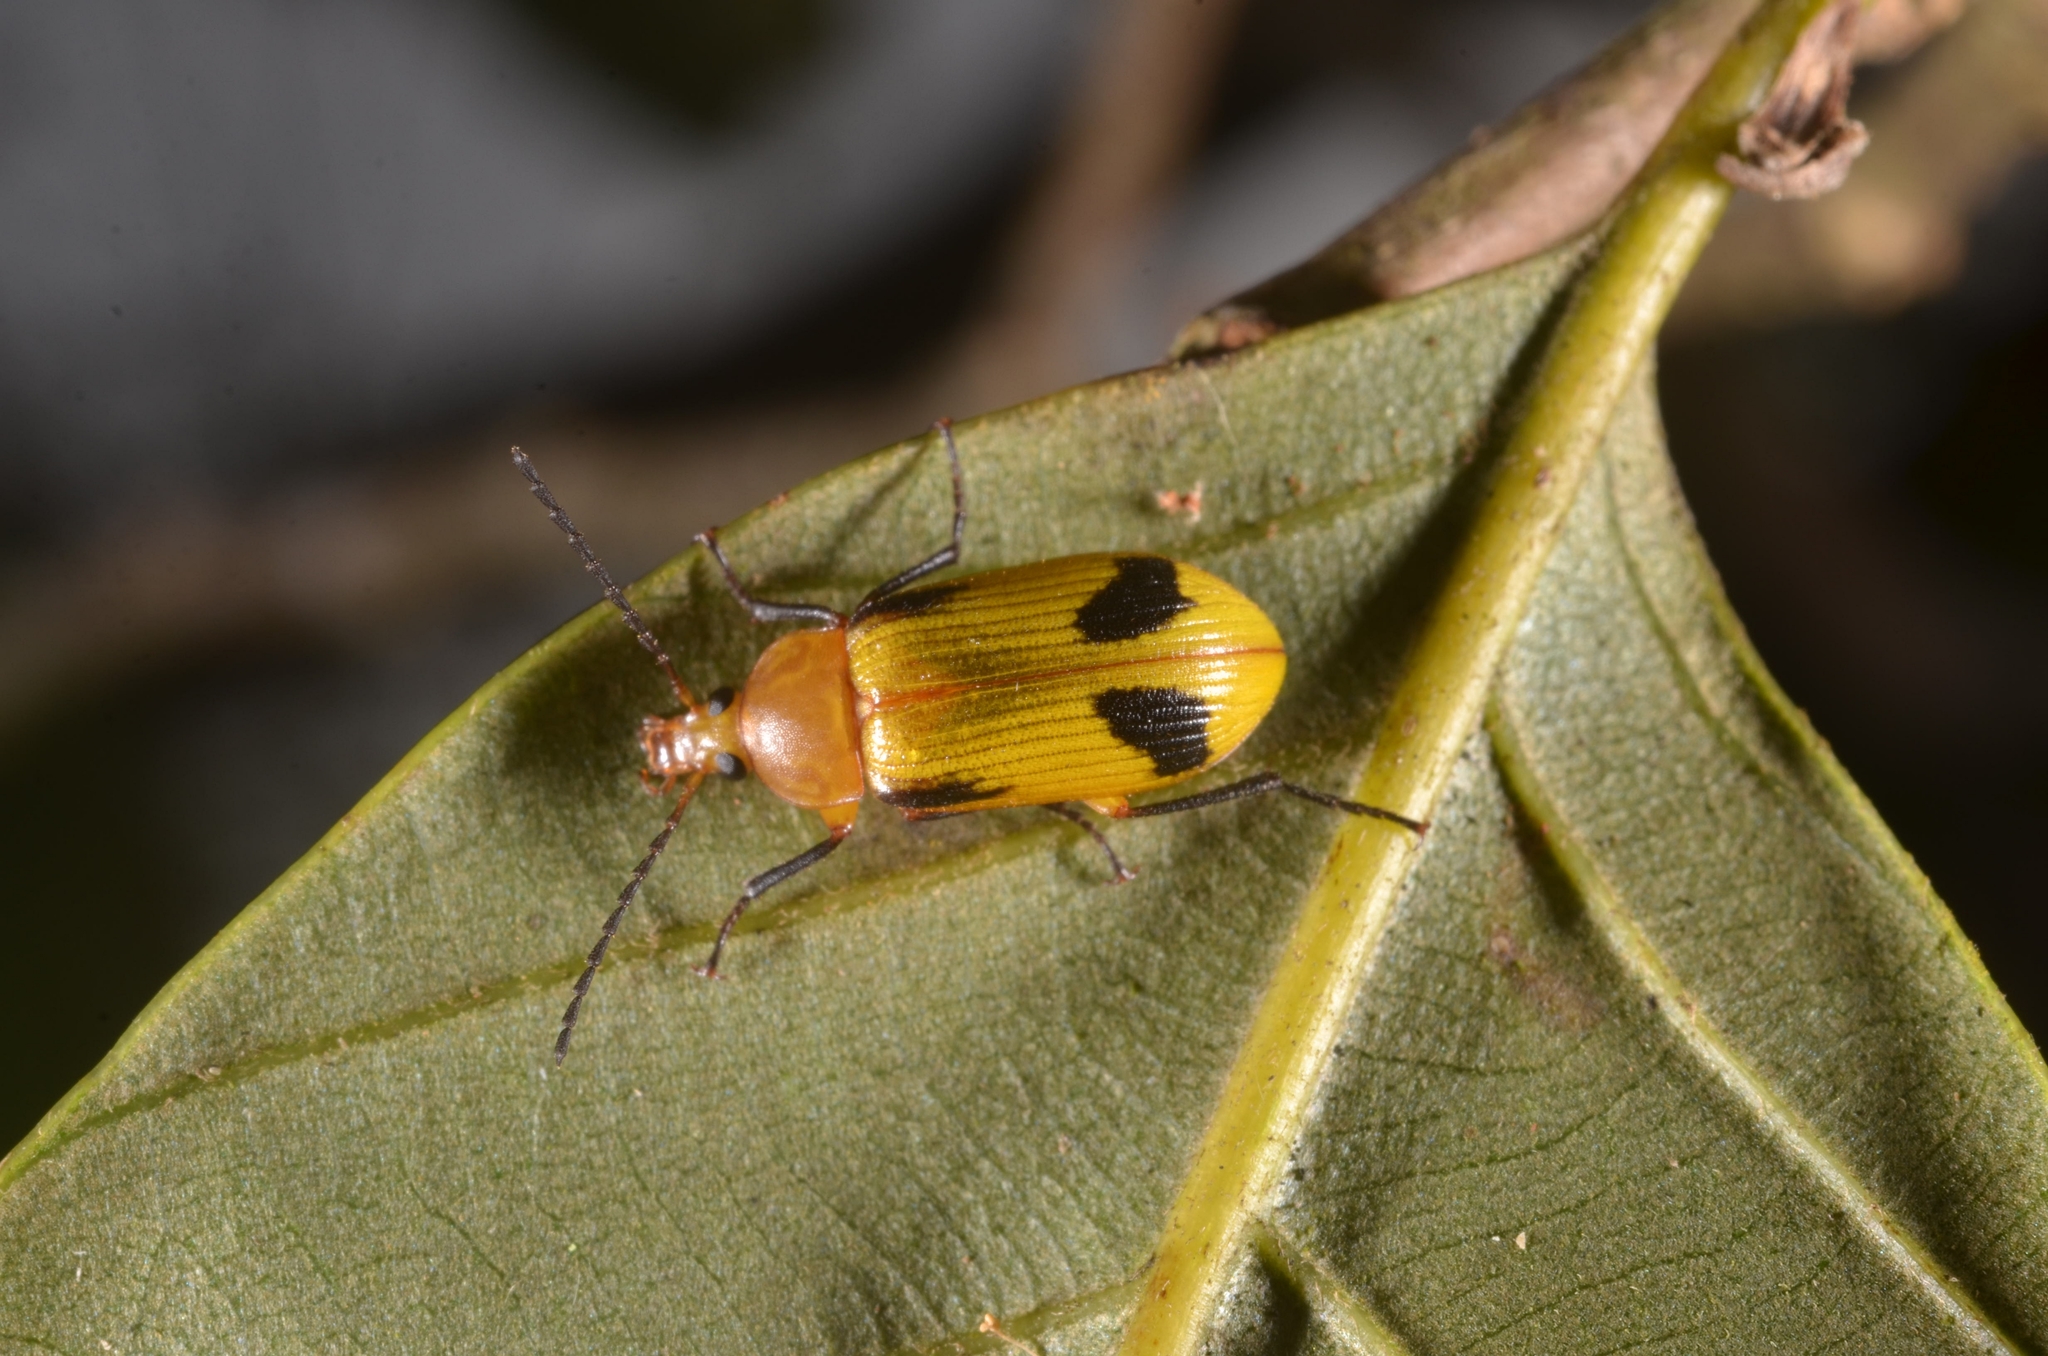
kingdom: Animalia
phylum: Arthropoda
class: Insecta
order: Coleoptera
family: Tenebrionidae
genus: Cistelomorpha
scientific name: Cistelomorpha
